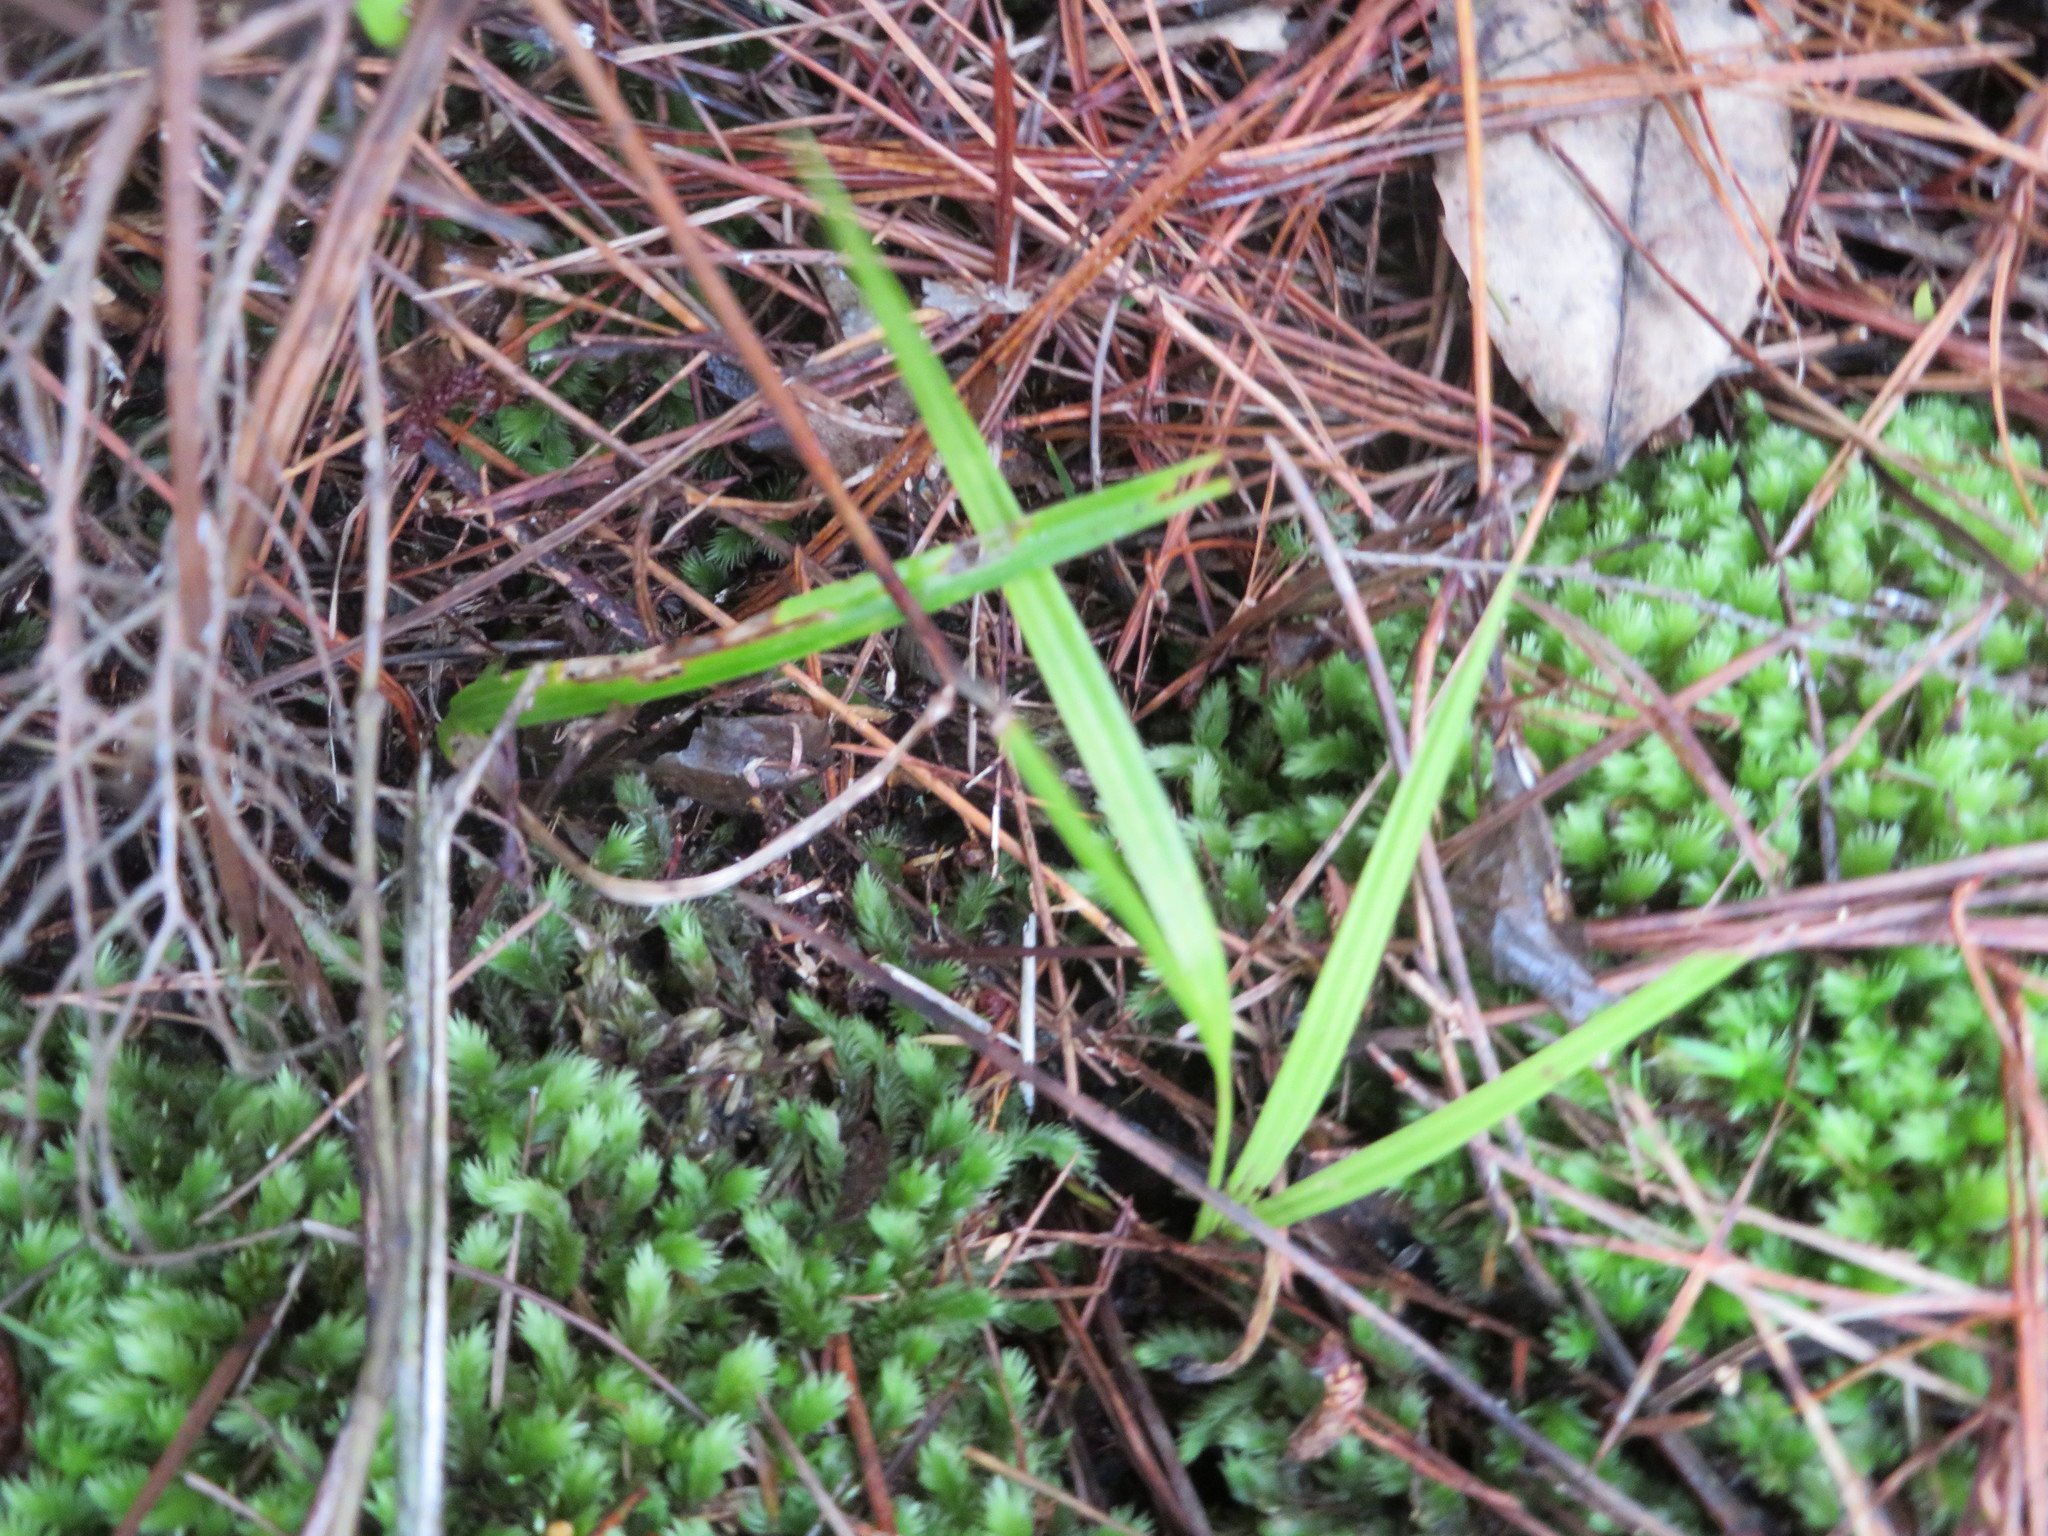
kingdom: Plantae
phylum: Tracheophyta
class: Liliopsida
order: Arecales
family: Arecaceae
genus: Rhopalostylis
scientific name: Rhopalostylis sapida
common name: Feather-duster palm
